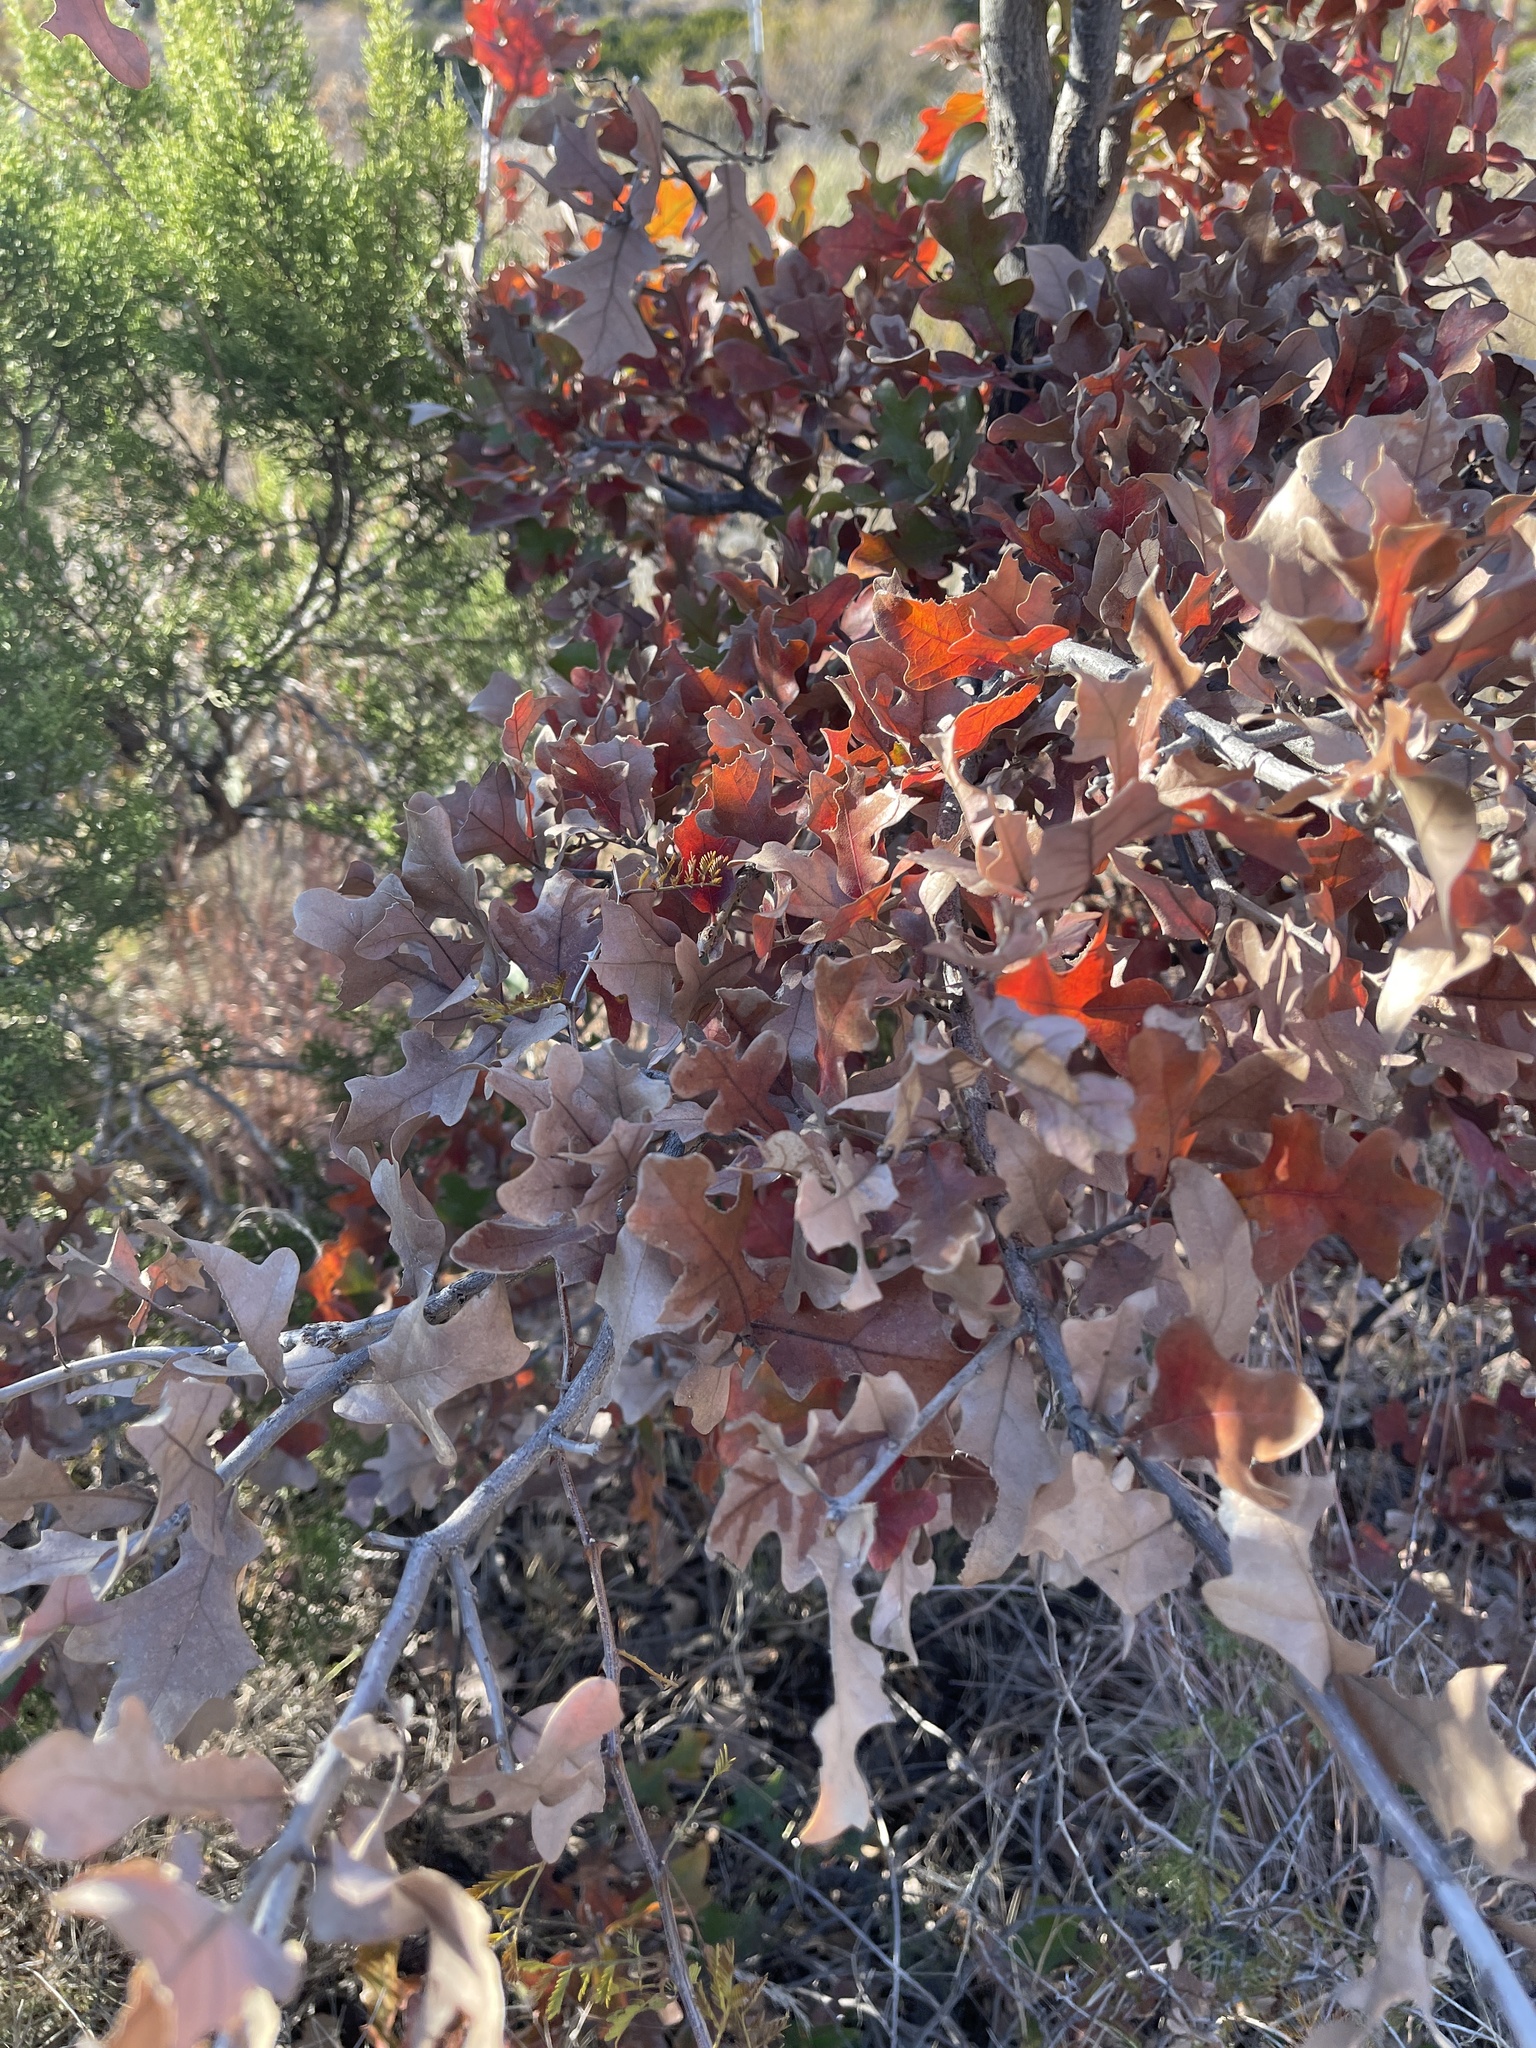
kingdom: Plantae
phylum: Tracheophyta
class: Magnoliopsida
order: Fagales
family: Fagaceae
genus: Quercus
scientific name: Quercus stellata
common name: Post oak
